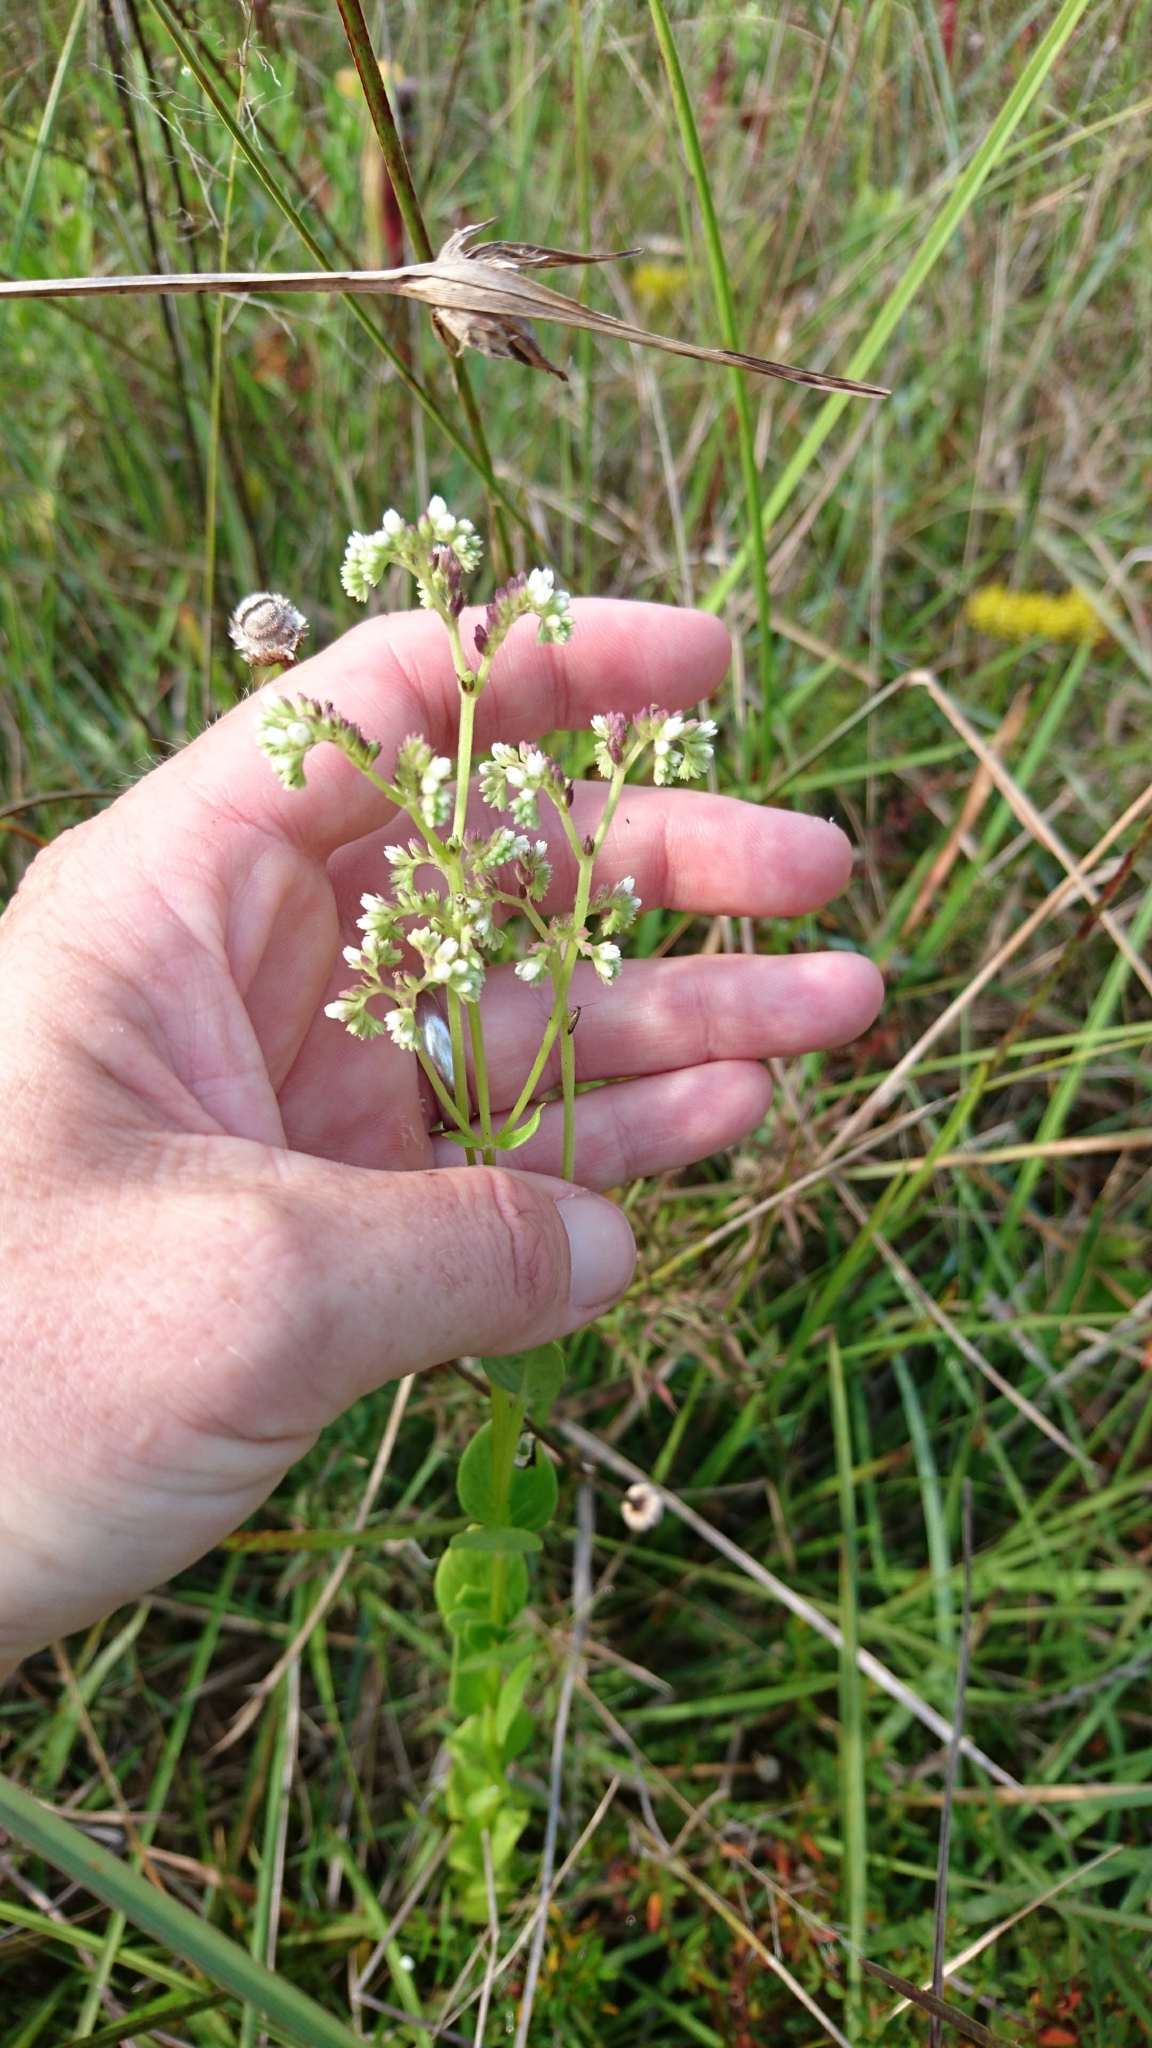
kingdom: Plantae
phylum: Tracheophyta
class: Magnoliopsida
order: Gentianales
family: Loganiaceae
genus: Mitreola
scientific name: Mitreola sessilifolia
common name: Swamp hornpod
